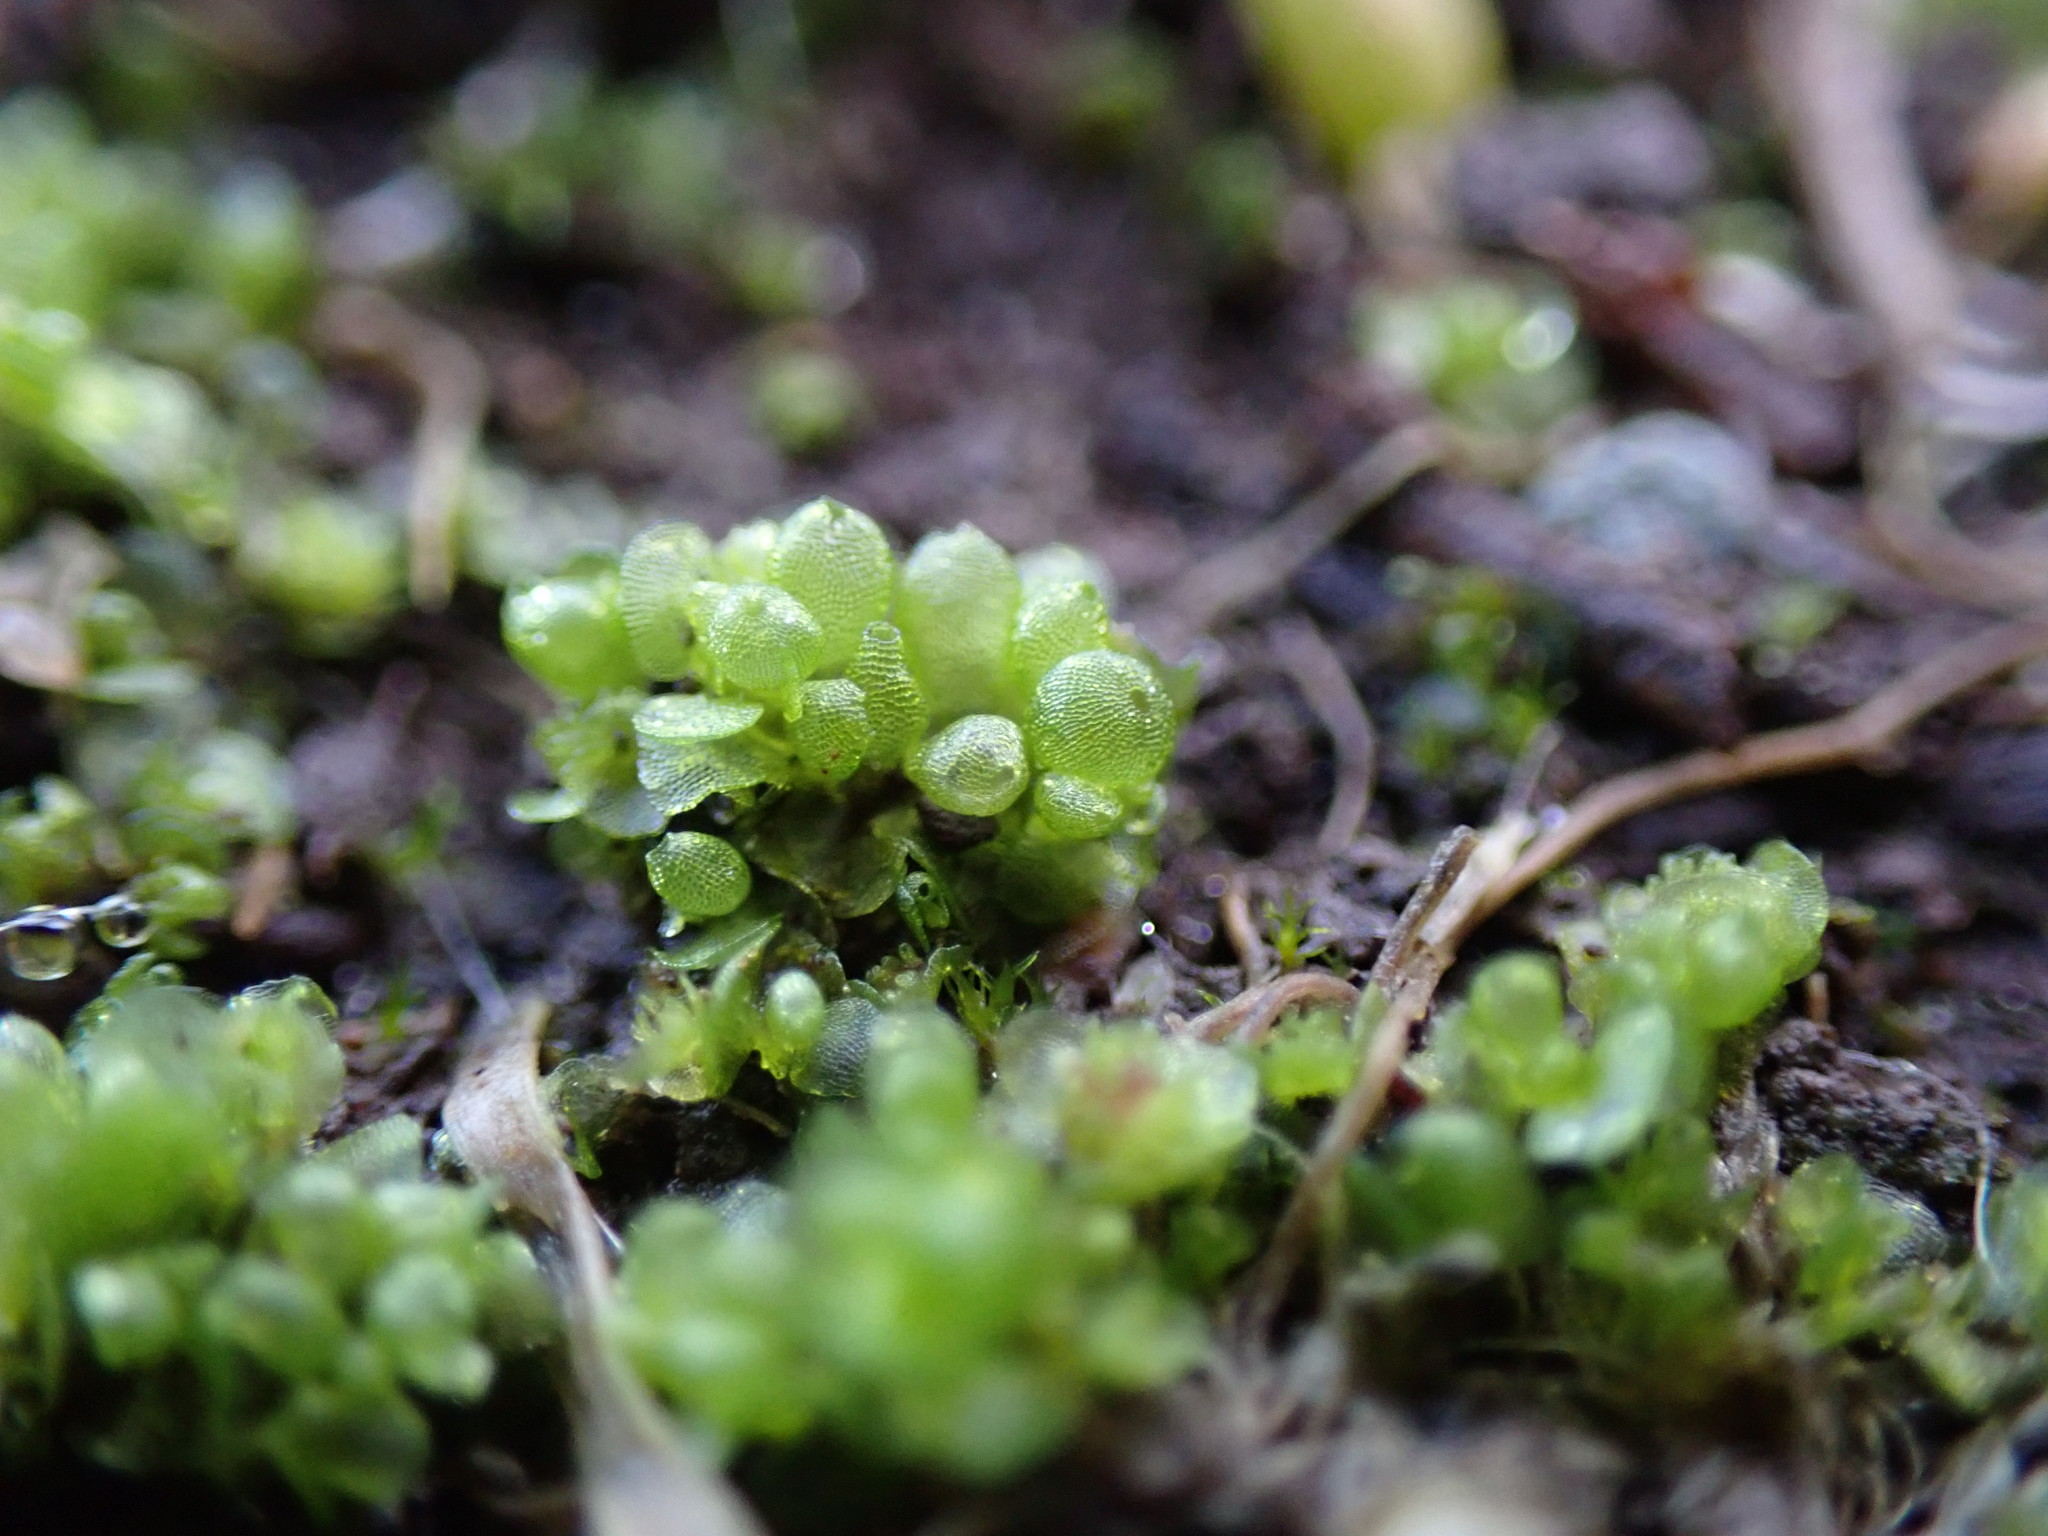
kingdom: Plantae
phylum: Marchantiophyta
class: Marchantiopsida
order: Sphaerocarpales
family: Sphaerocarpaceae
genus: Sphaerocarpos
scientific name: Sphaerocarpos texanus
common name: Texas balloonwort
